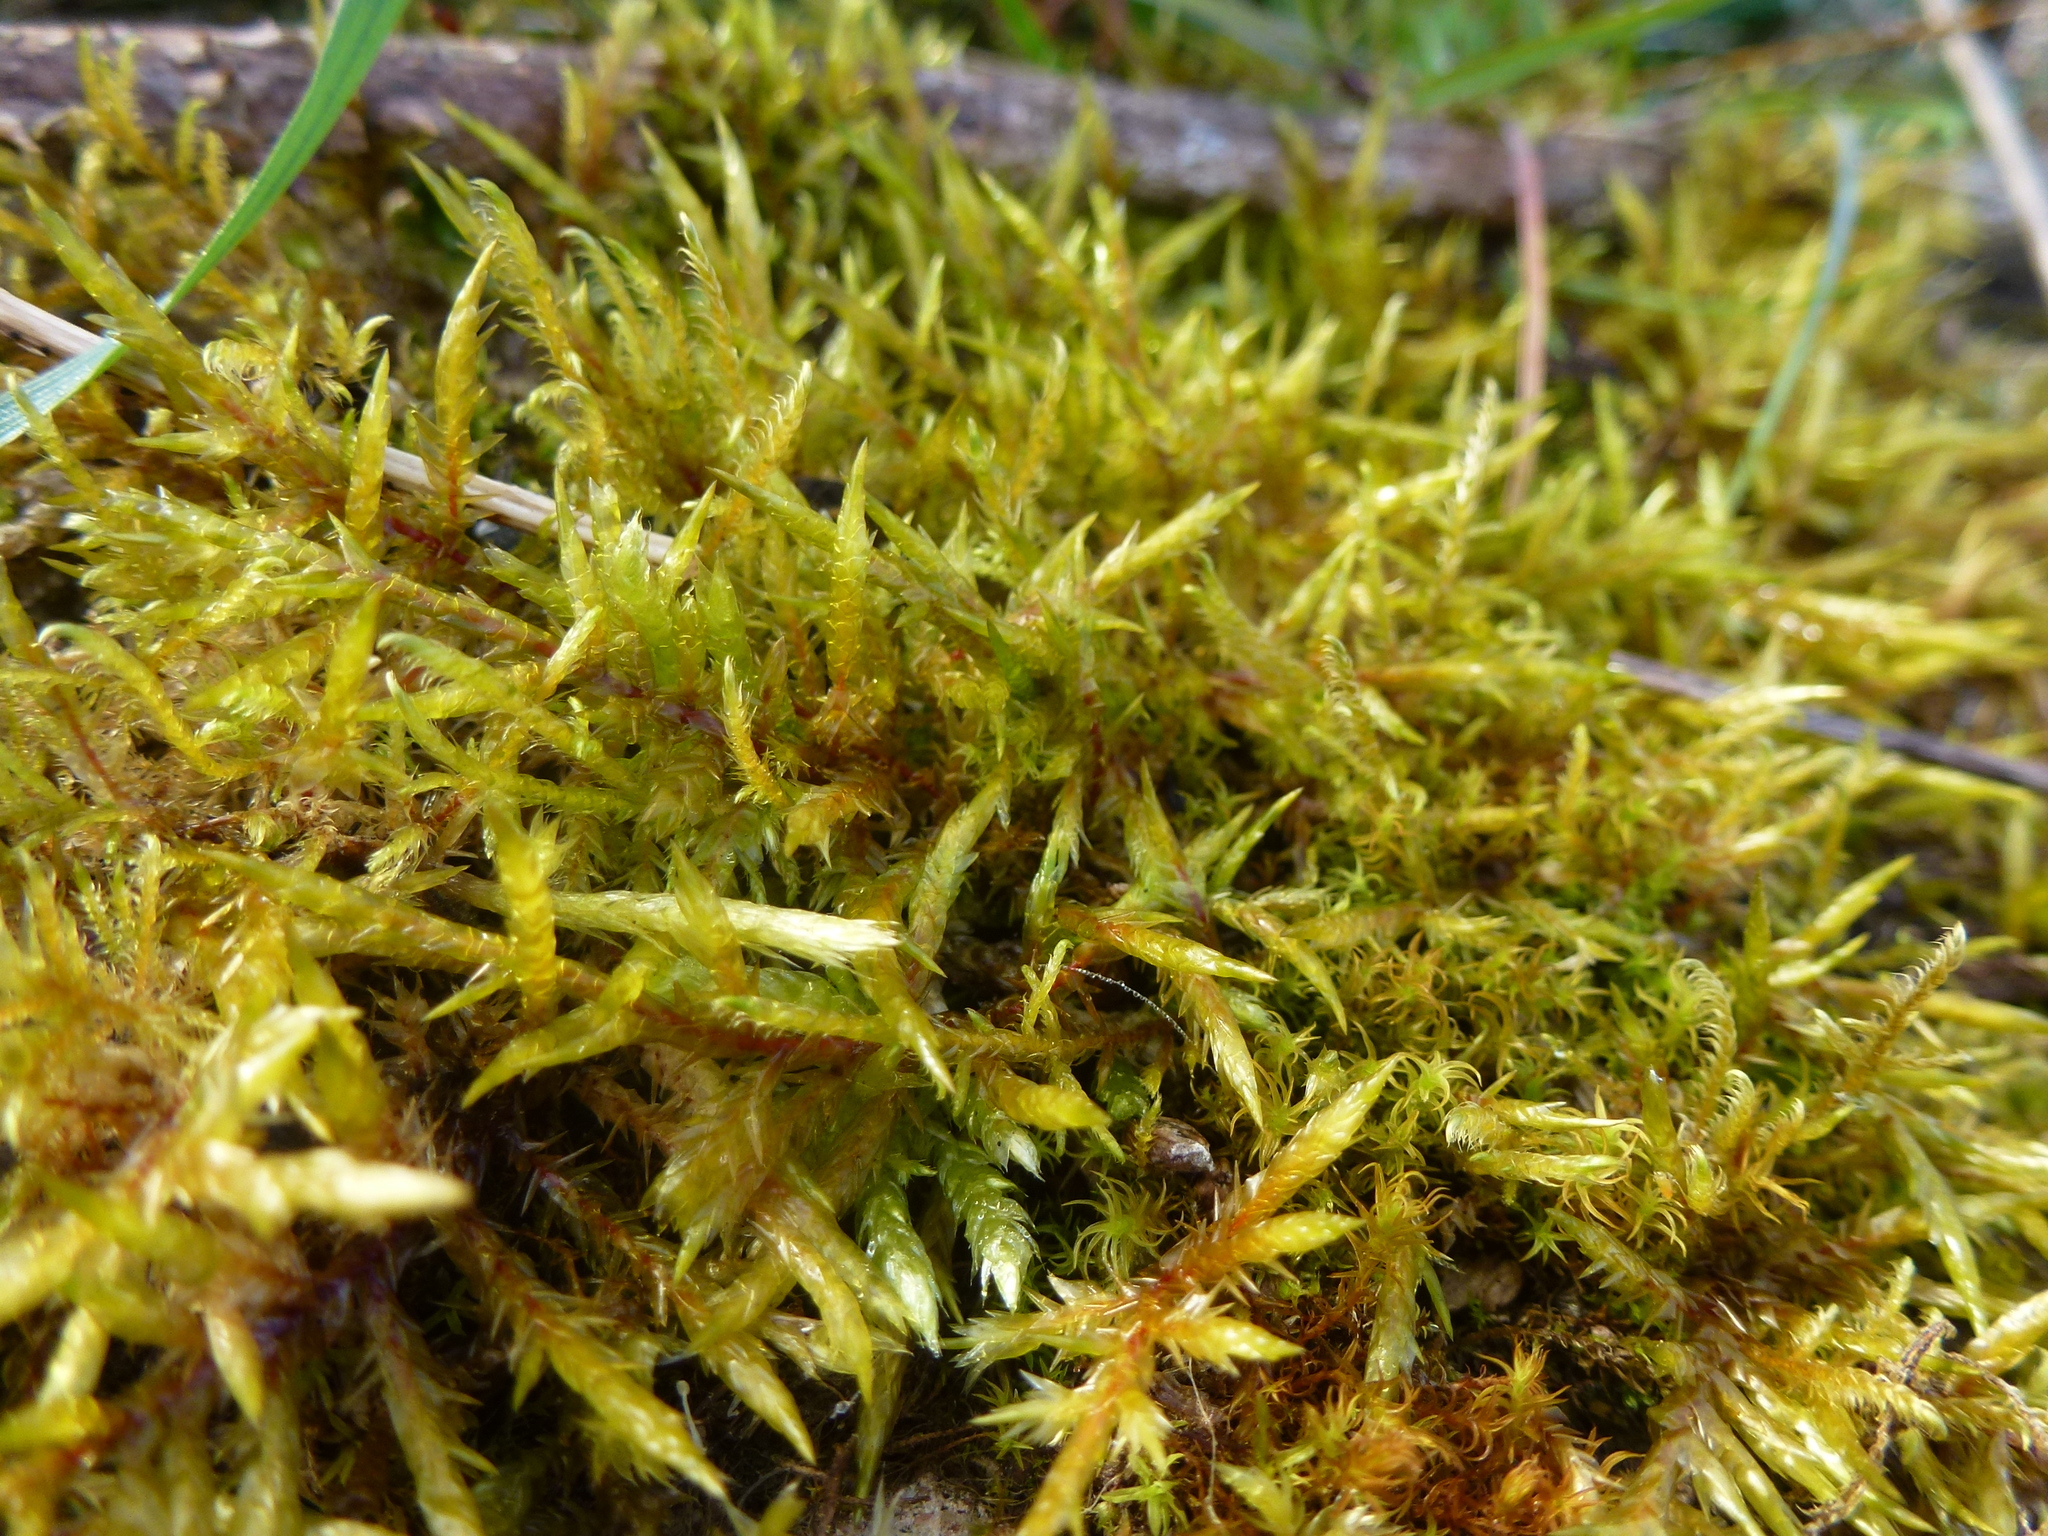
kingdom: Plantae
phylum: Bryophyta
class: Bryopsida
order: Hypnales
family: Pylaisiaceae
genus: Calliergonella
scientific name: Calliergonella cuspidata
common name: Common large wetland moss
